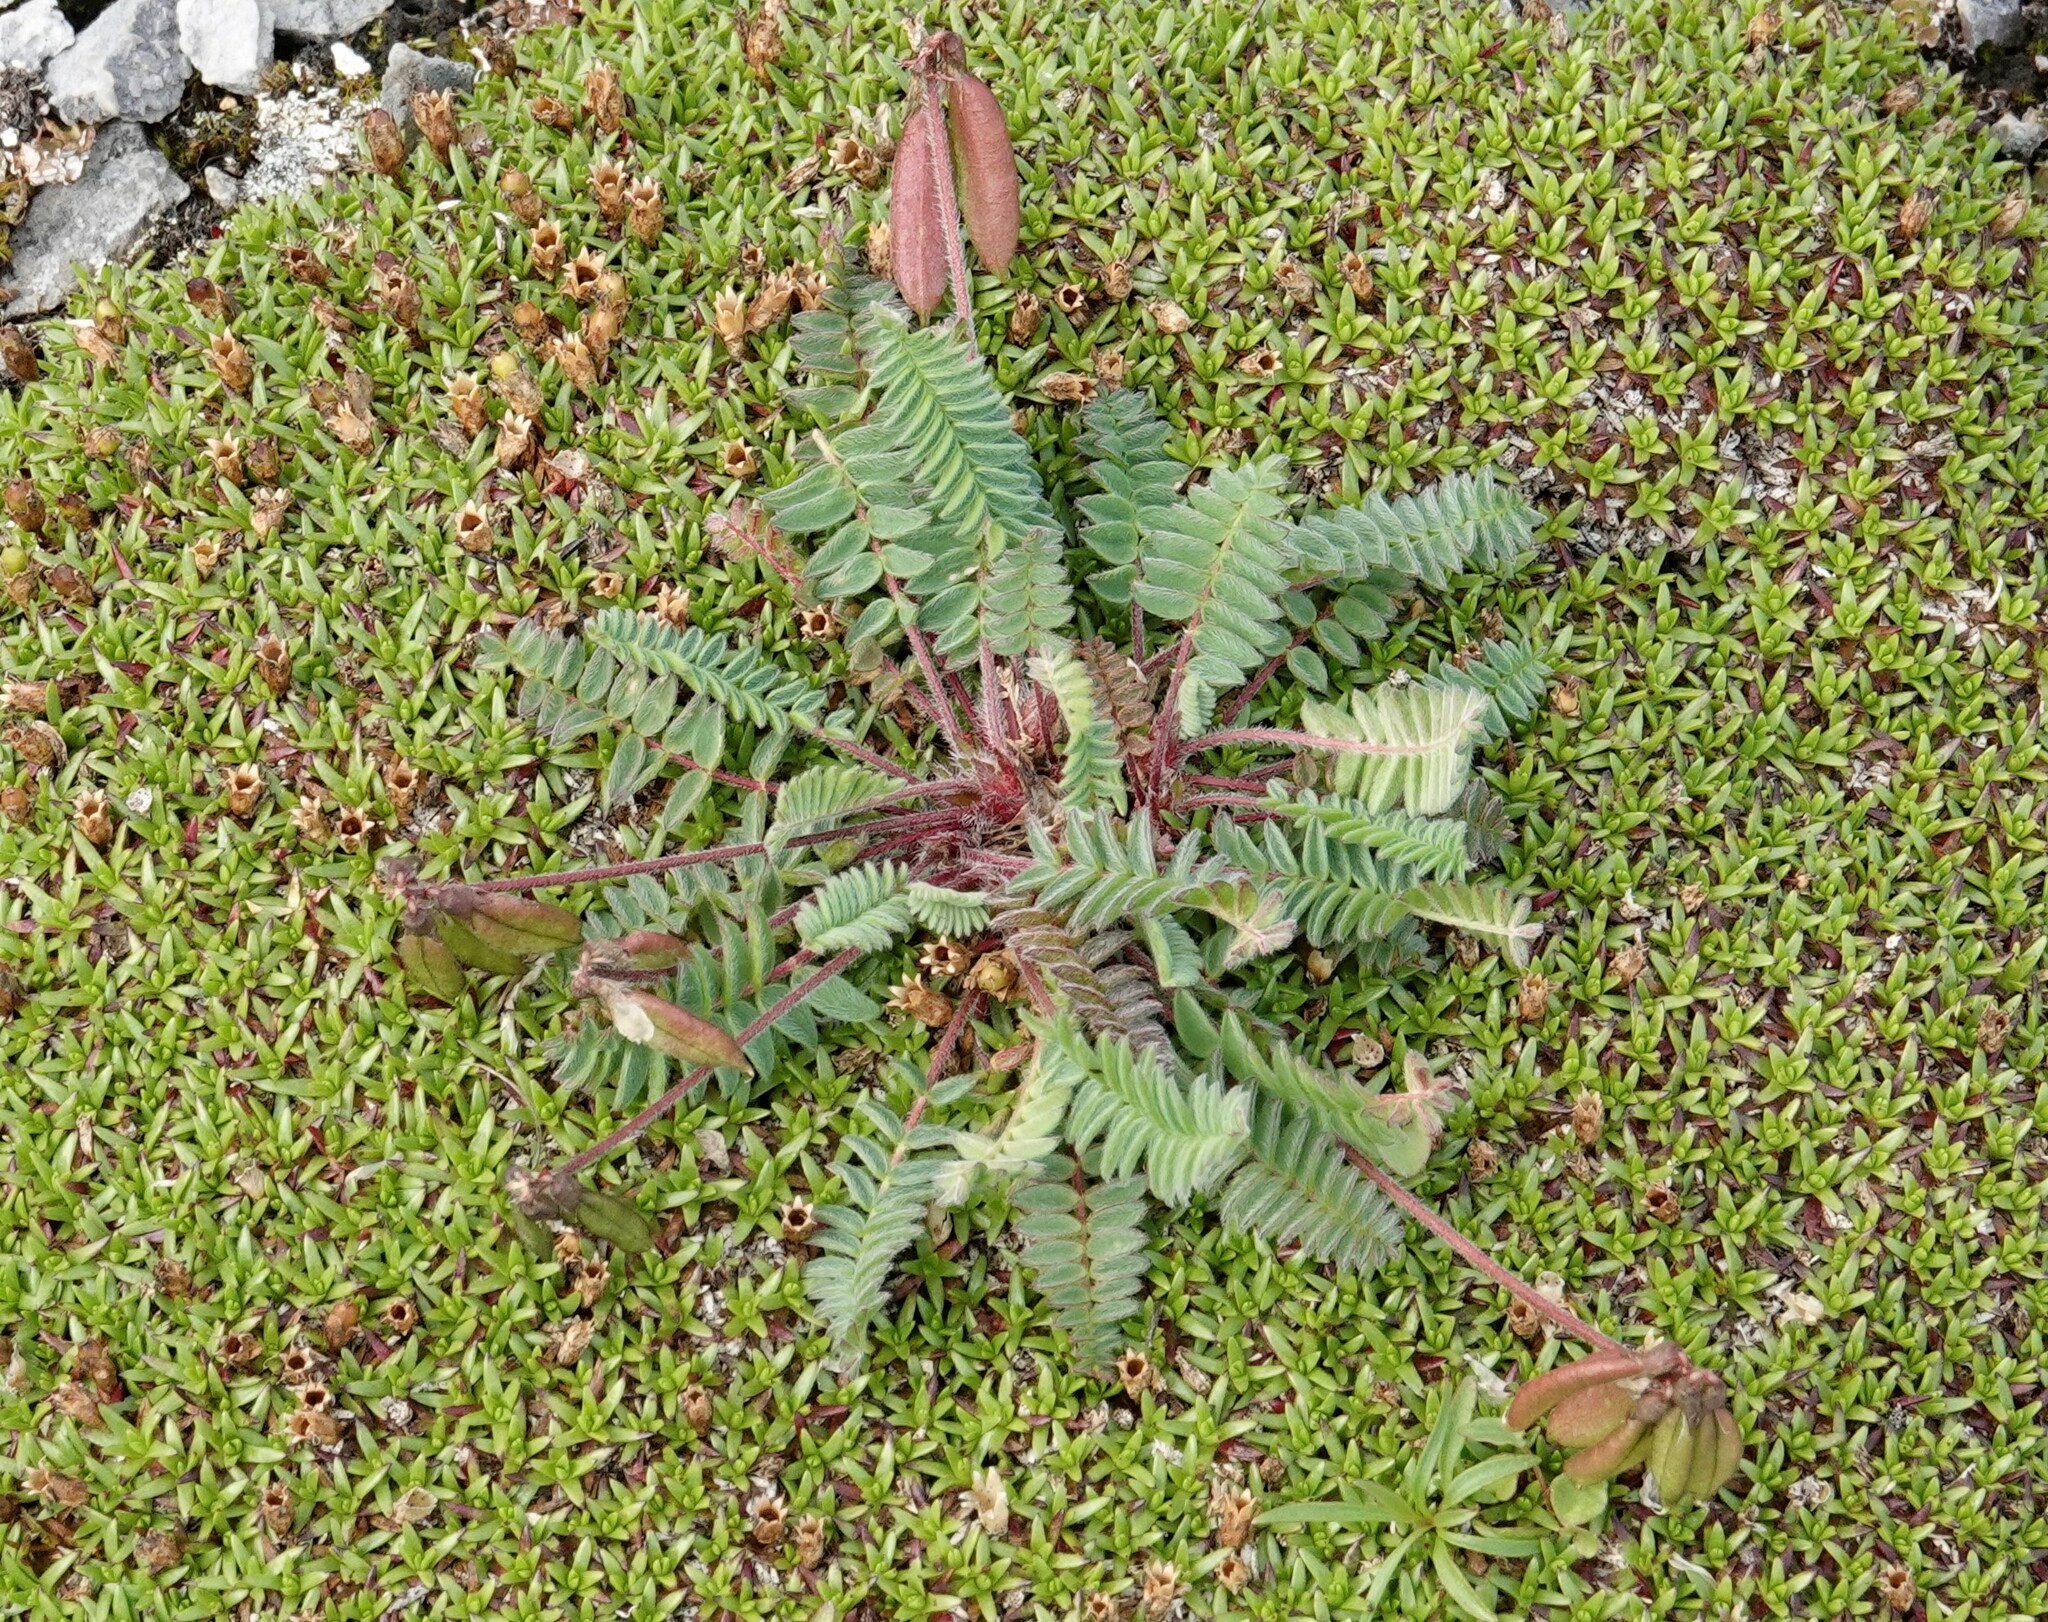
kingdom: Plantae
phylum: Tracheophyta
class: Magnoliopsida
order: Fabales
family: Fabaceae
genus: Oxytropis
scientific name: Oxytropis deflexa
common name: Stemmed oxytrope
